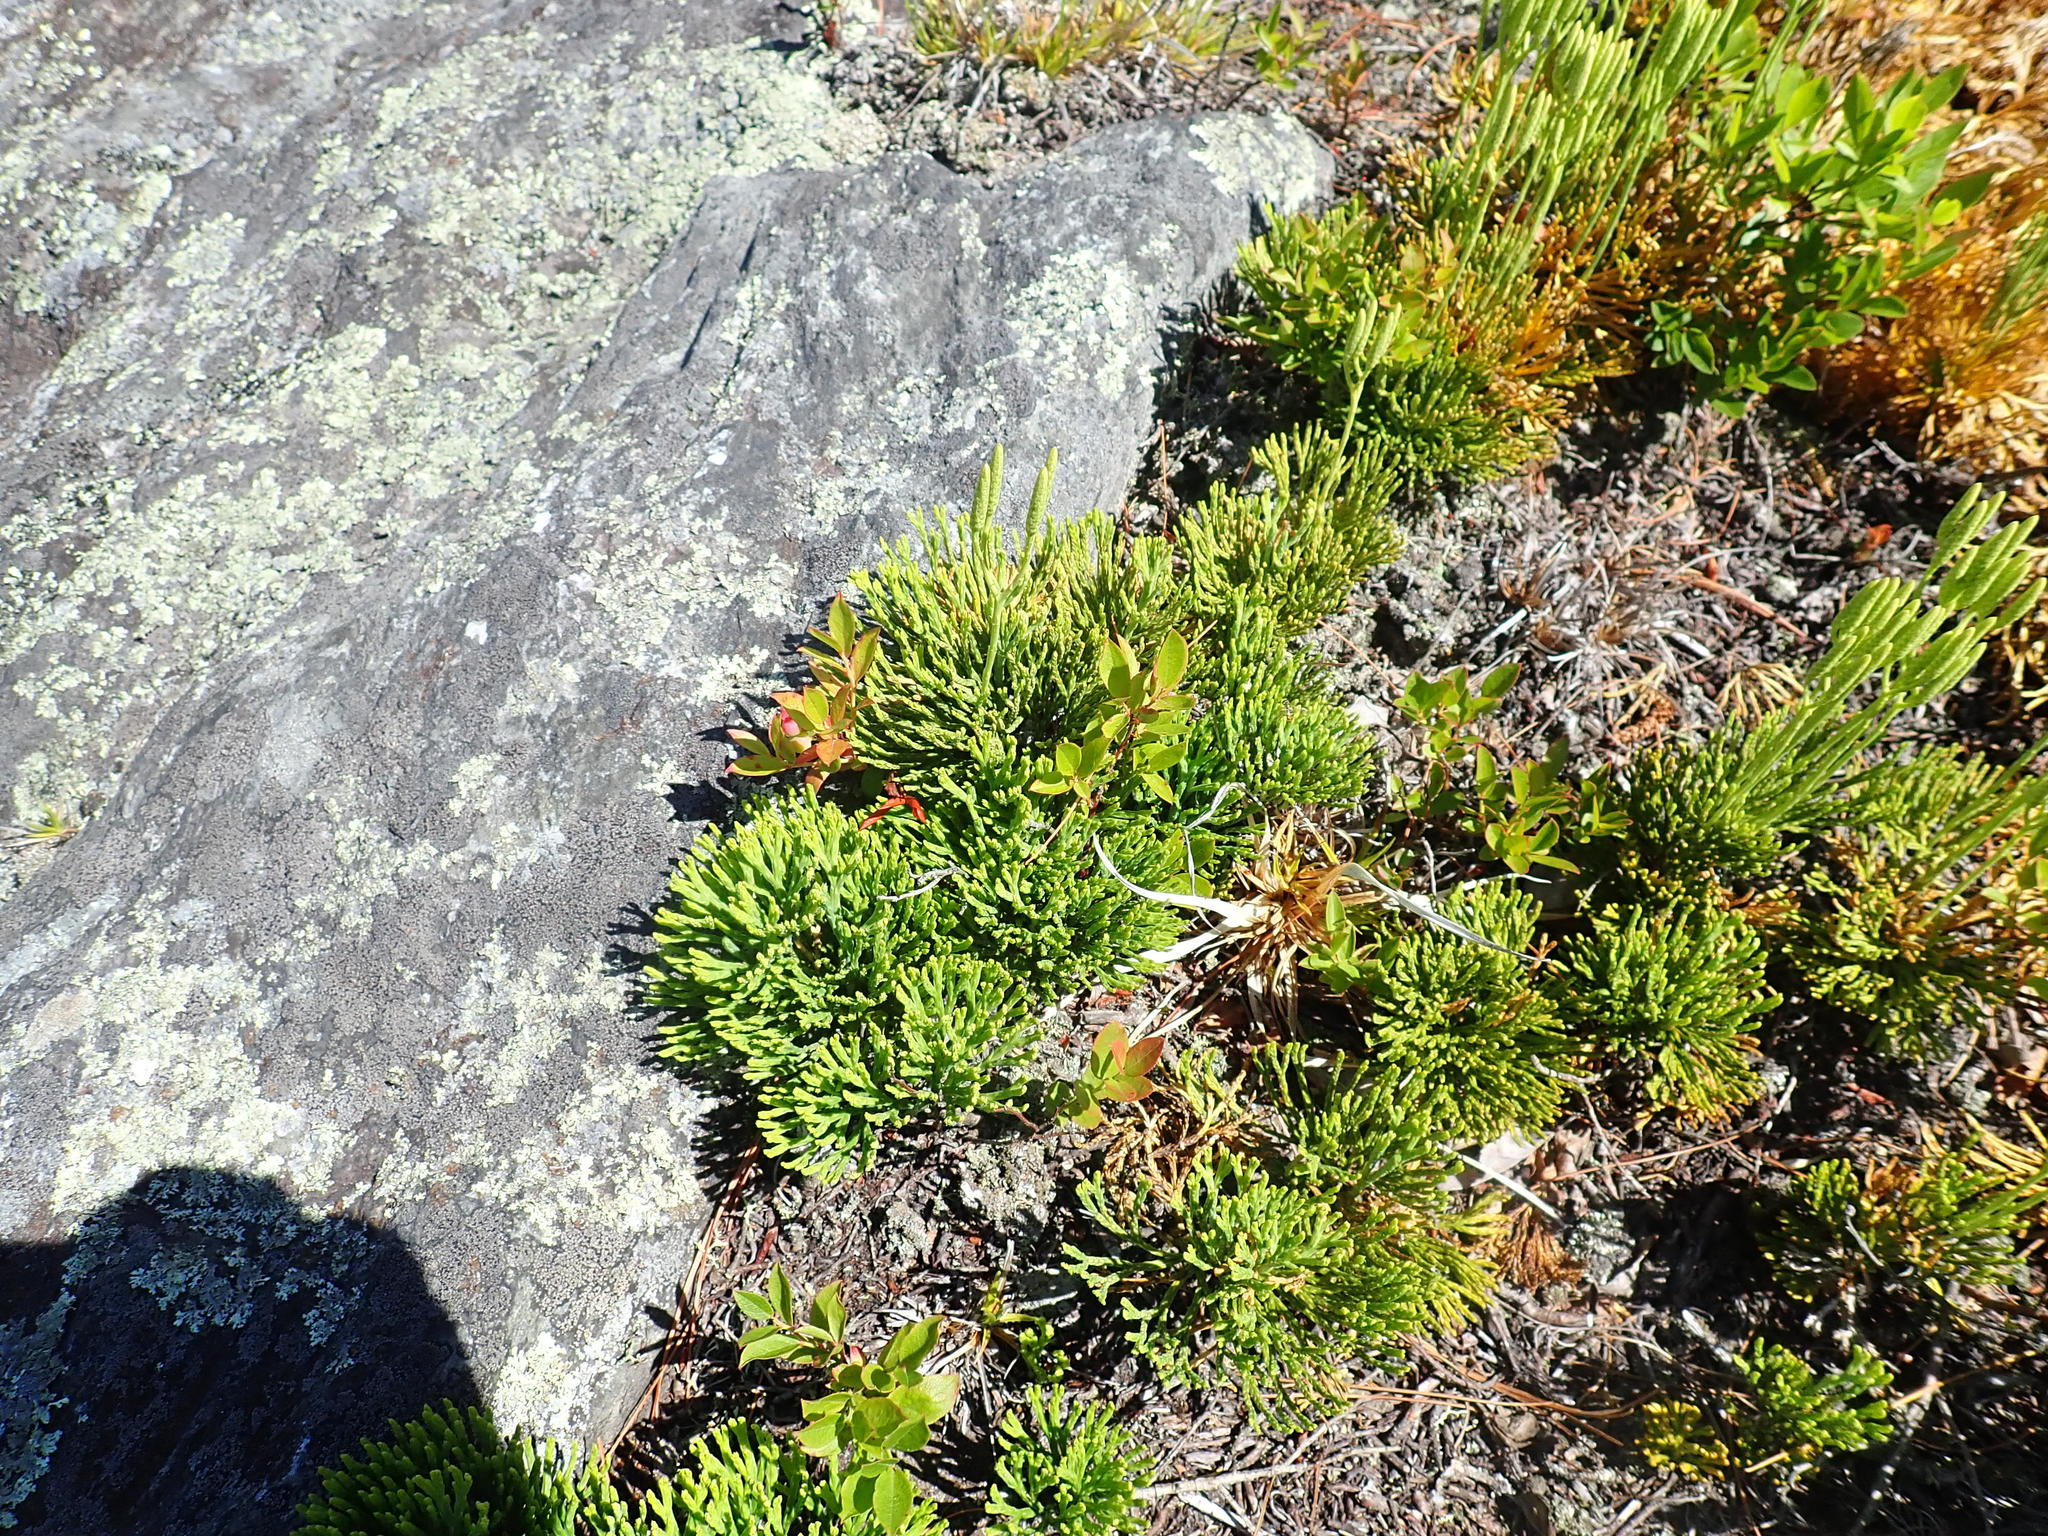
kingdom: Plantae
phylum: Tracheophyta
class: Lycopodiopsida
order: Lycopodiales
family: Lycopodiaceae
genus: Diphasiastrum
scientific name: Diphasiastrum tristachyum
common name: Blue ground-cedar
